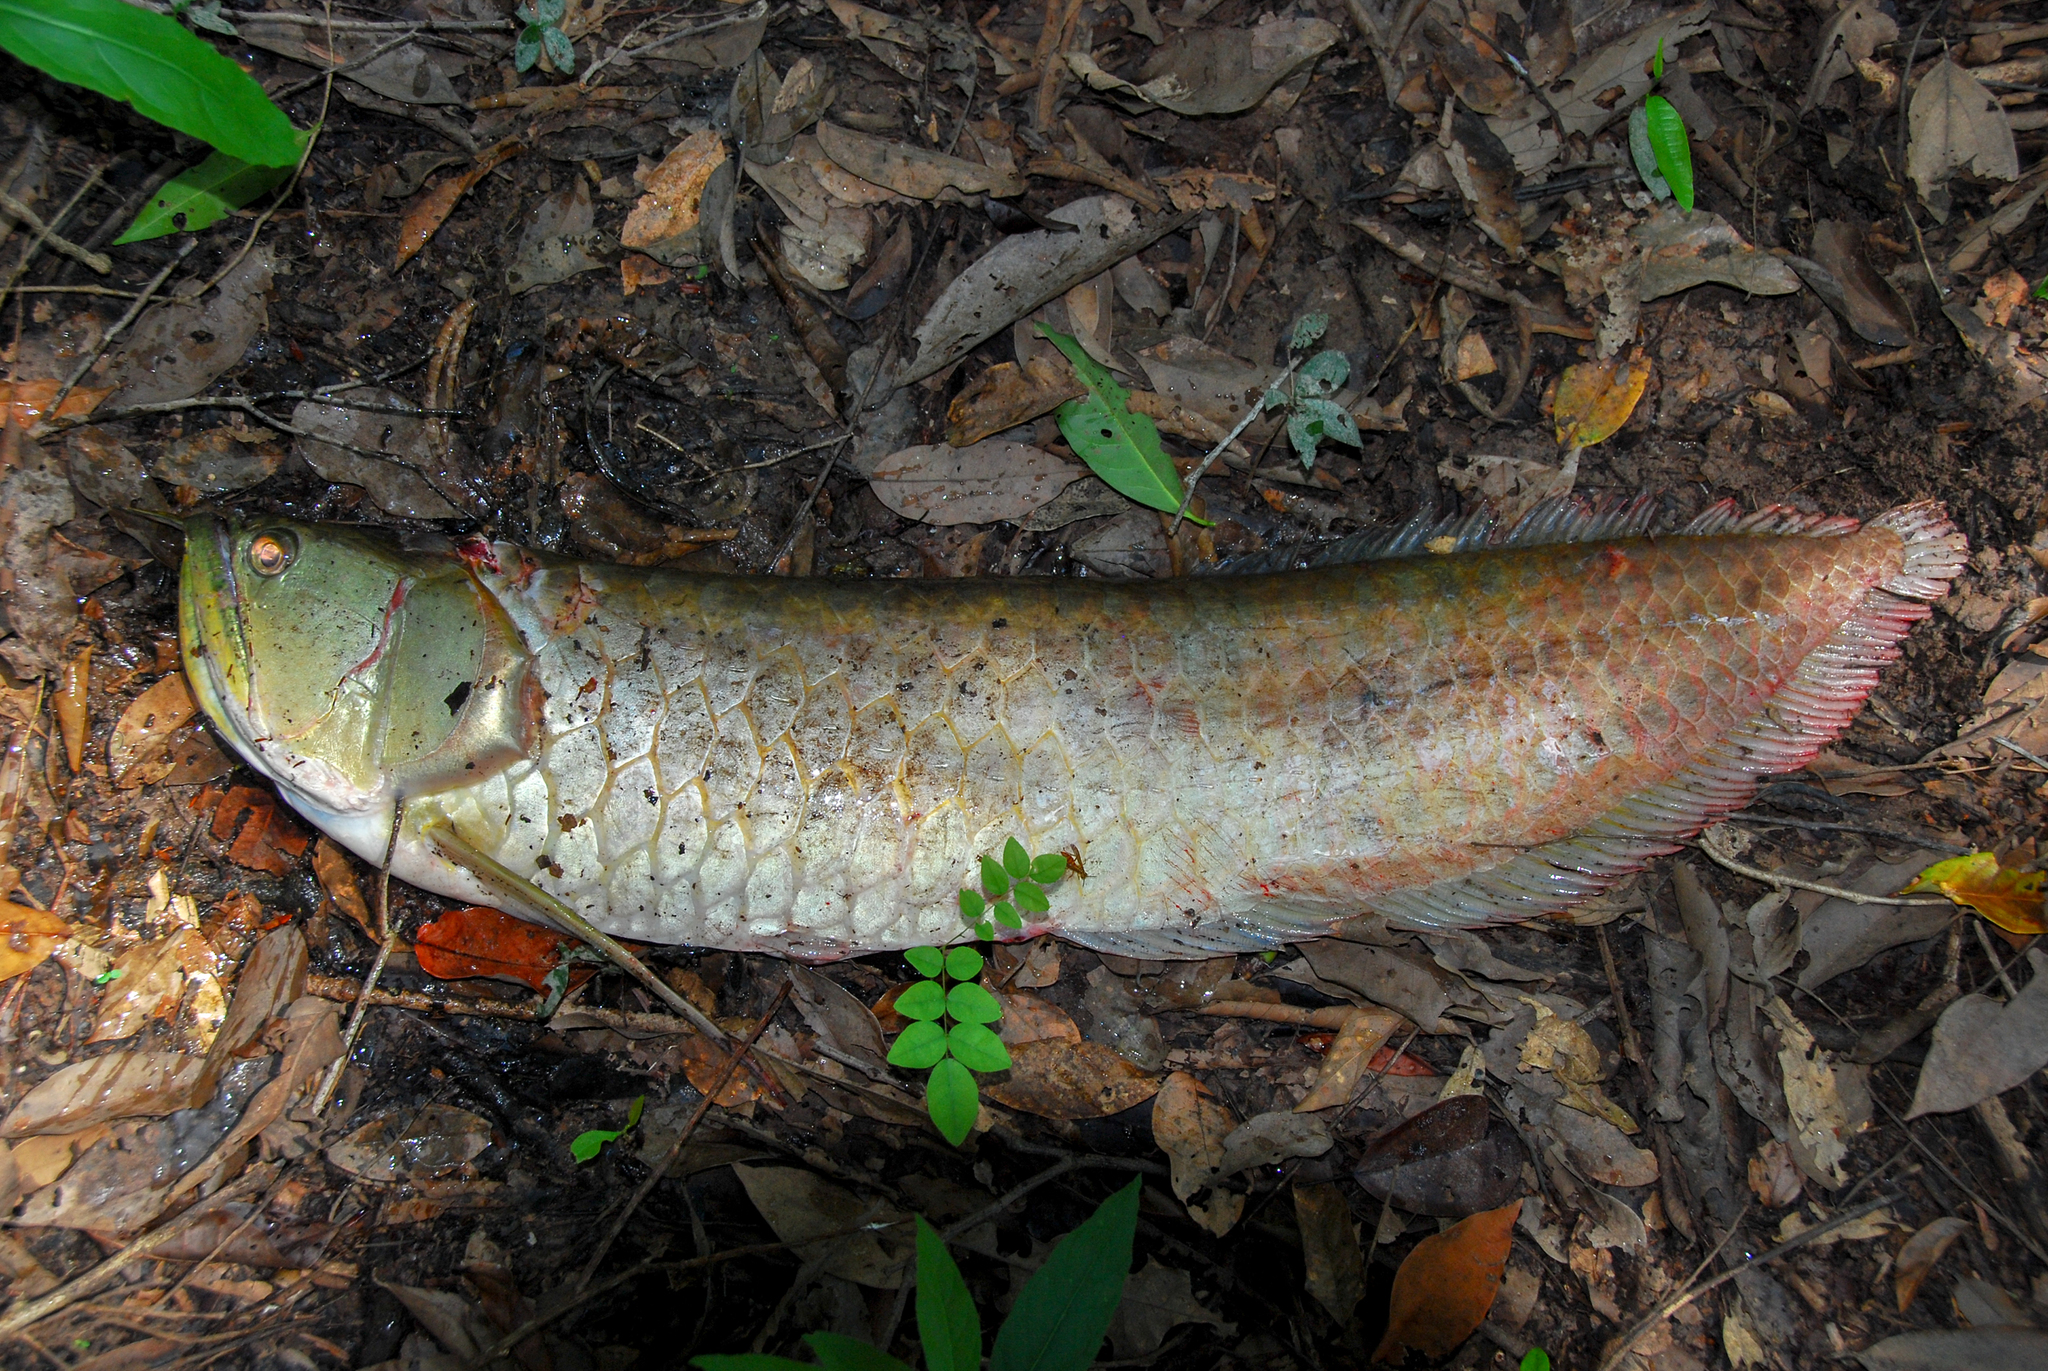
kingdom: Animalia
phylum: Chordata
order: Osteoglossiformes
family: Osteoglossidae
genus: Osteoglossum
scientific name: Osteoglossum bicirrhosum
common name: Arawana
